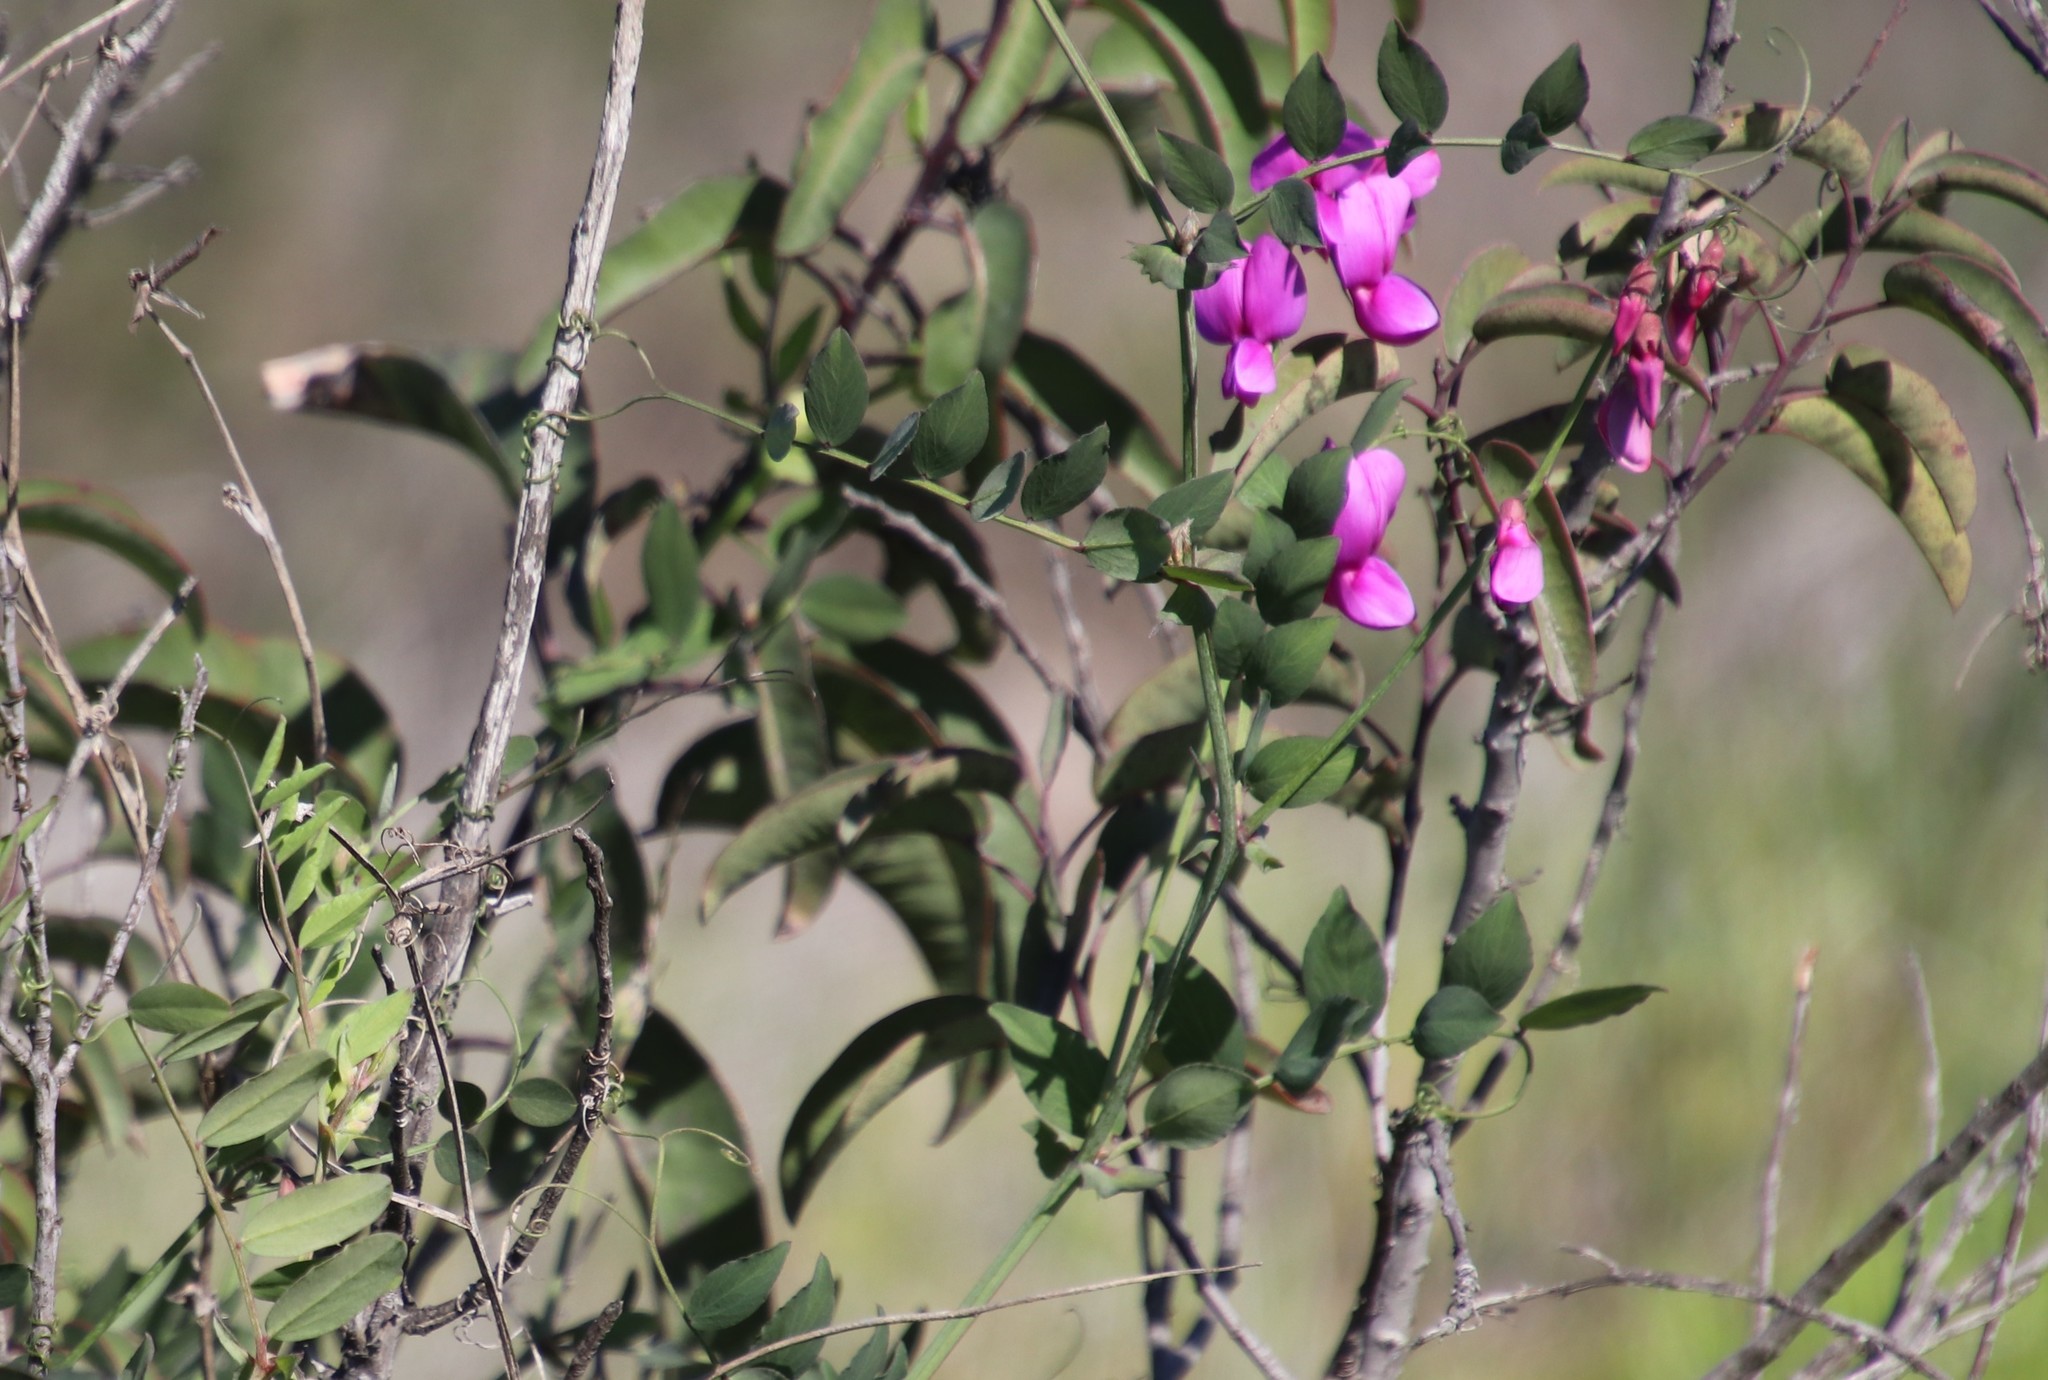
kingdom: Plantae
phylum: Tracheophyta
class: Magnoliopsida
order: Fabales
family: Fabaceae
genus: Lathyrus
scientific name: Lathyrus vestitus
